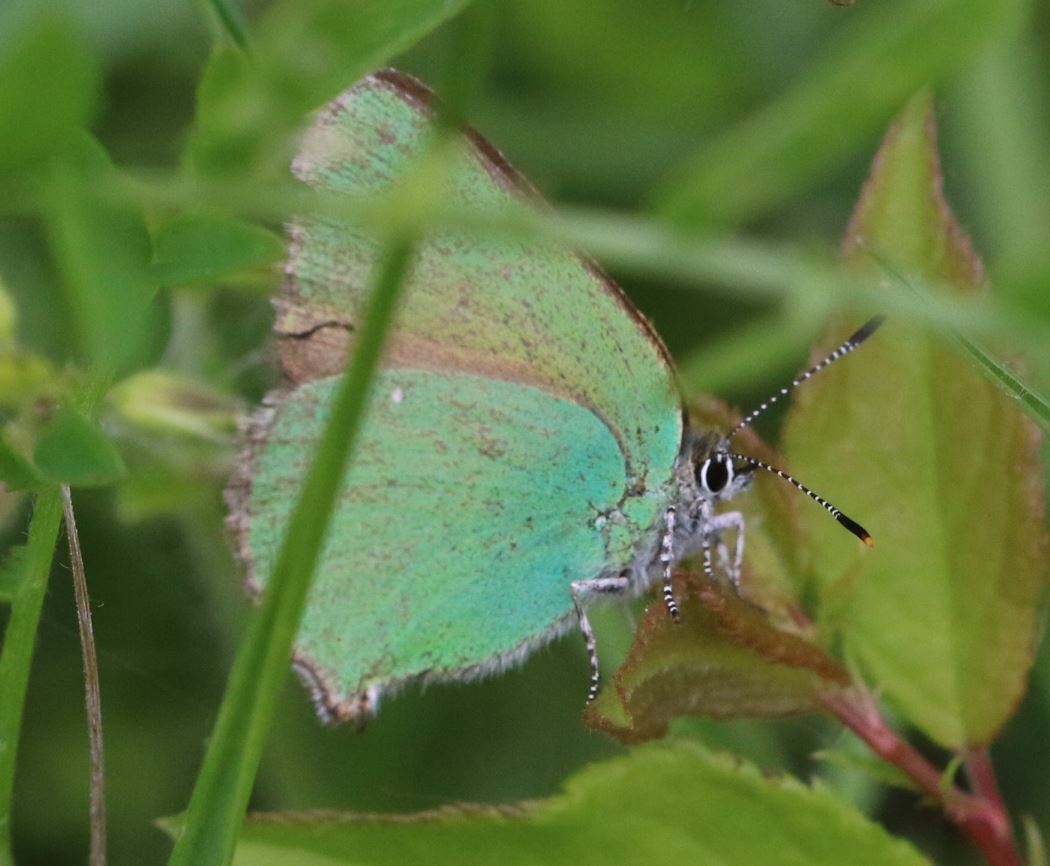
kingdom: Animalia
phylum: Arthropoda
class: Insecta
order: Lepidoptera
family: Lycaenidae
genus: Callophrys
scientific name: Callophrys rubi
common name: Green hairstreak
